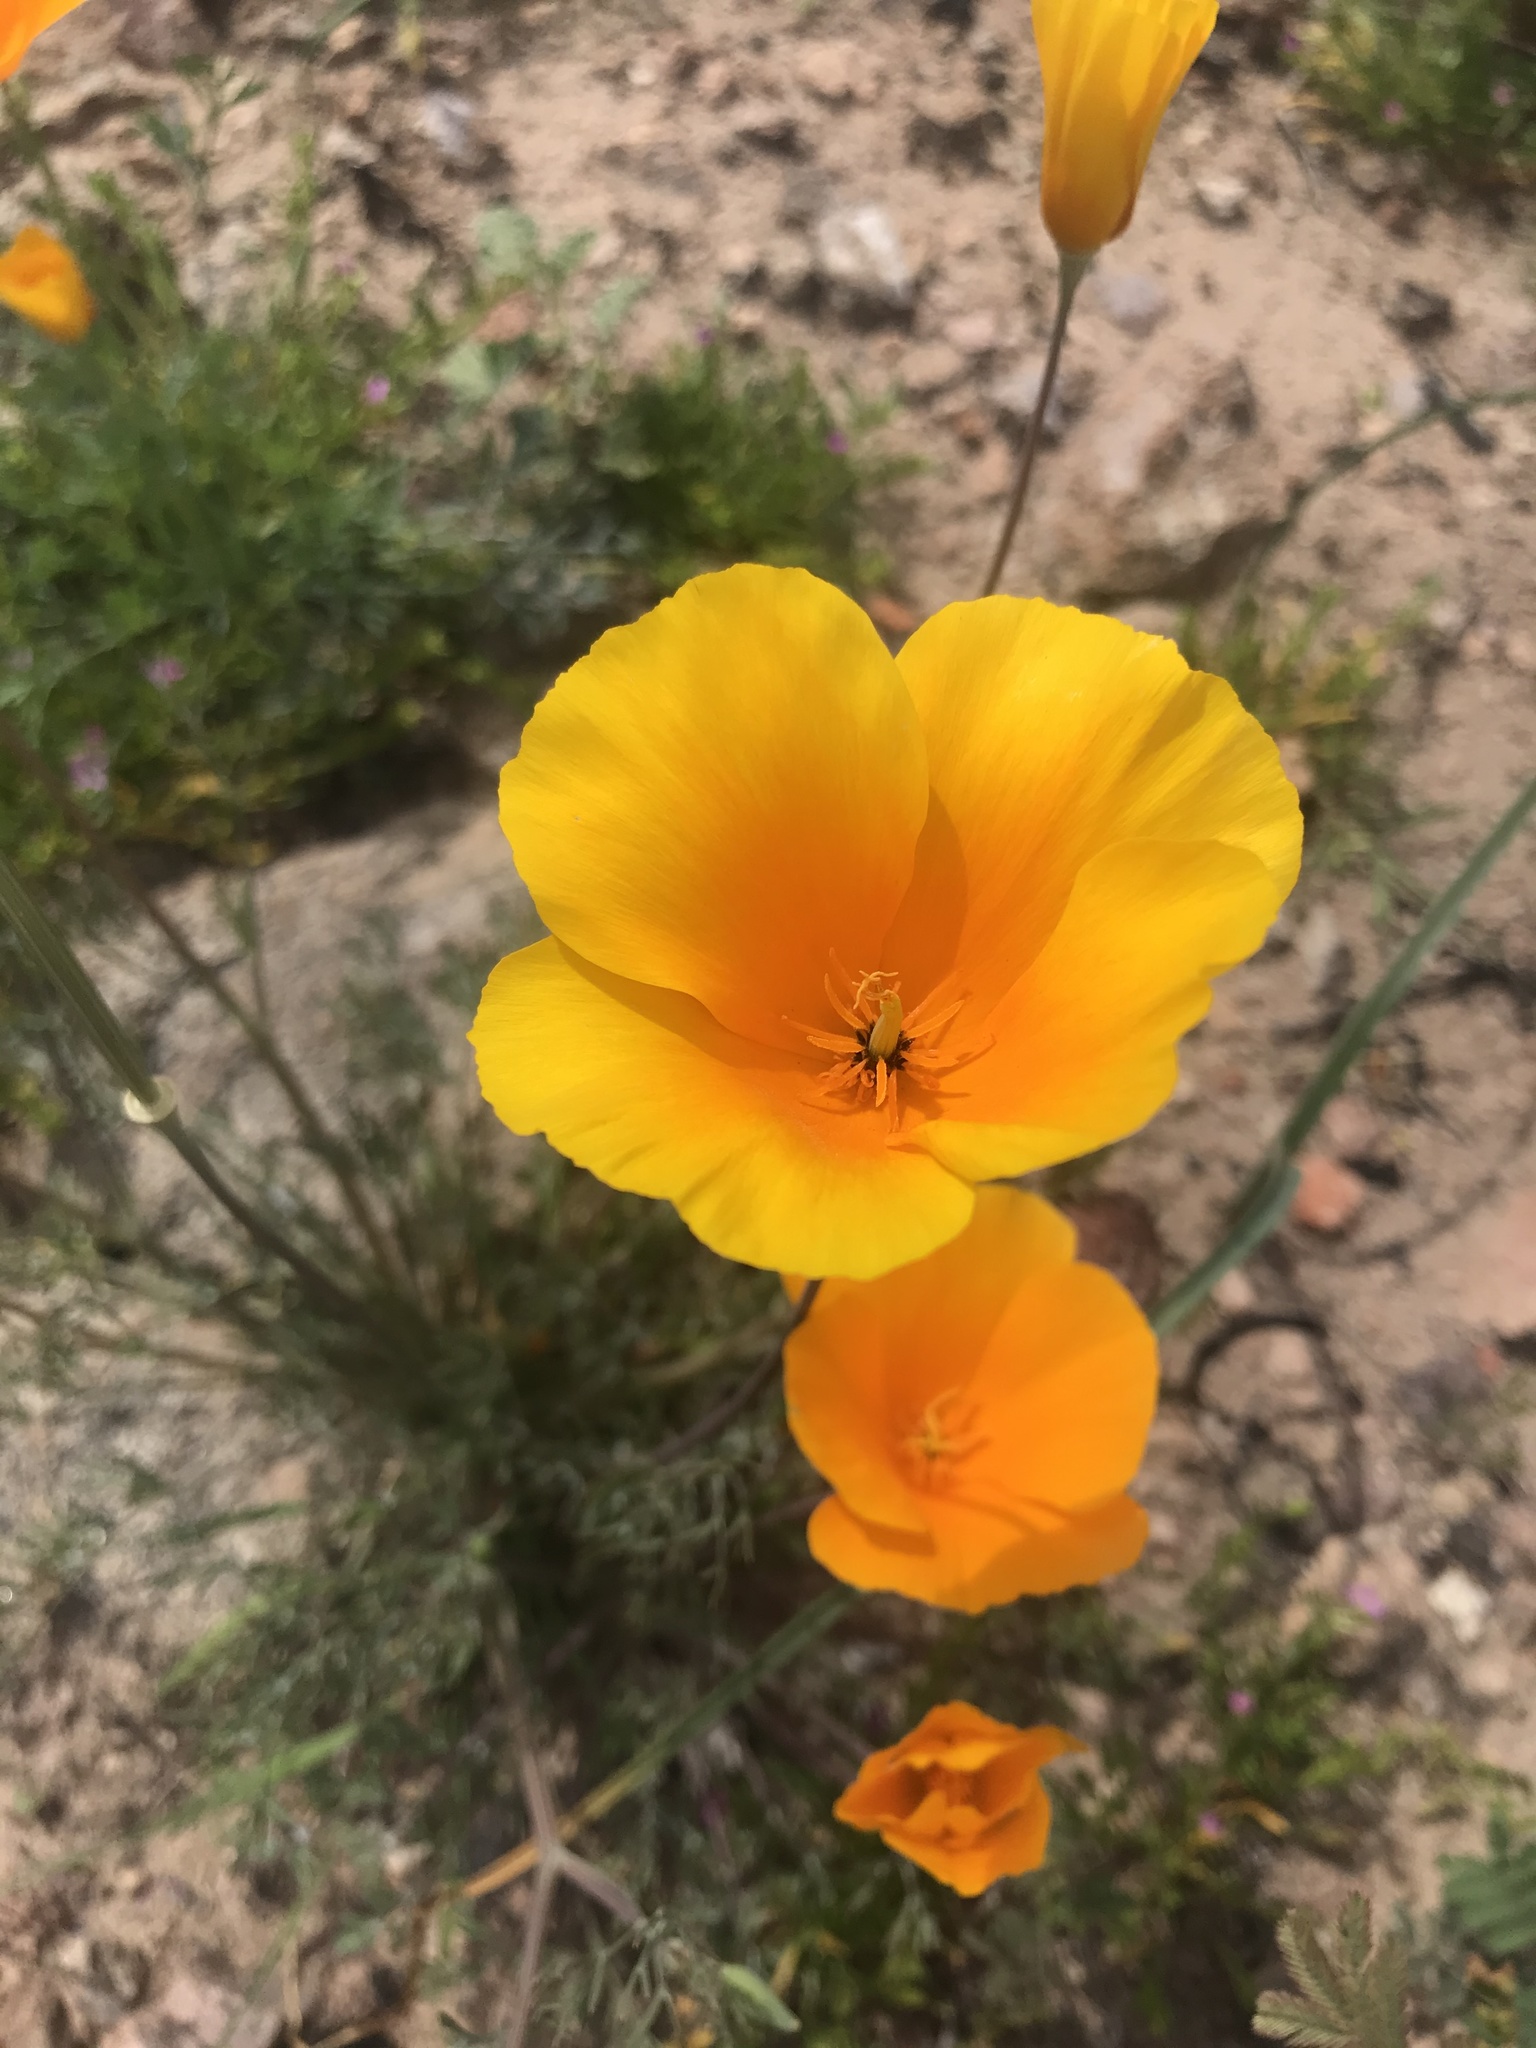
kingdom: Plantae
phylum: Tracheophyta
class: Magnoliopsida
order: Ranunculales
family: Papaveraceae
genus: Eschscholzia
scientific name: Eschscholzia californica
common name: California poppy
